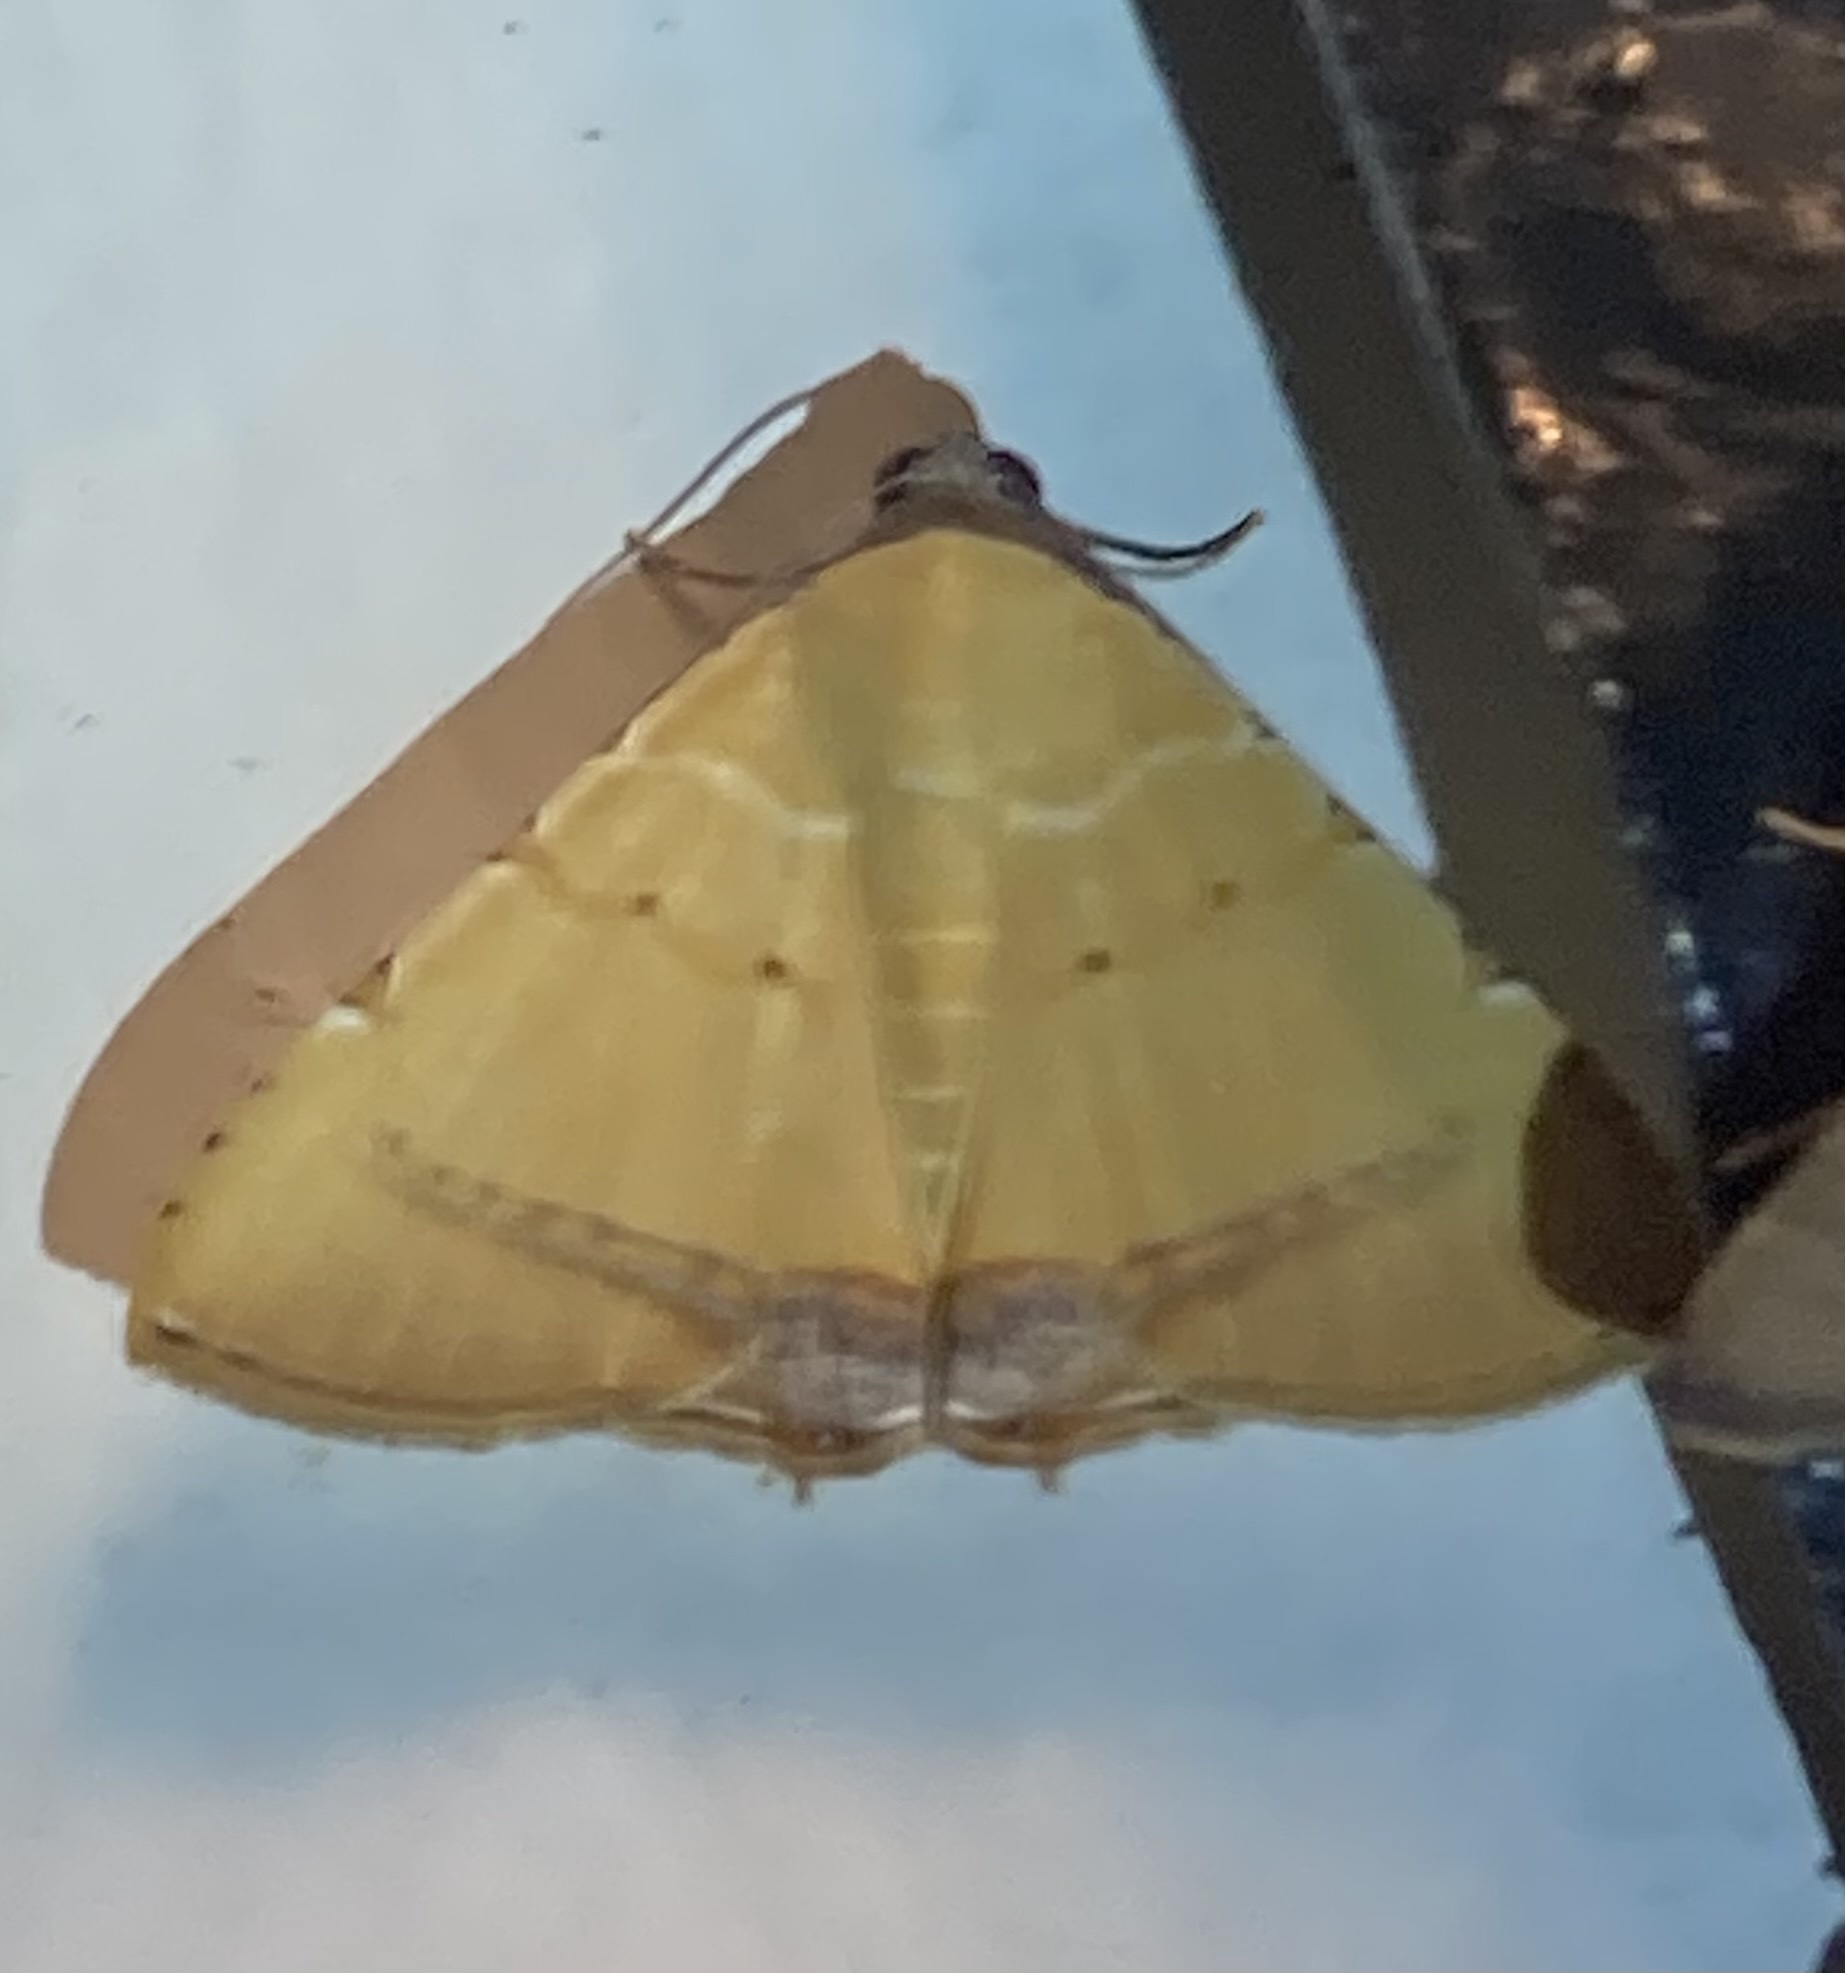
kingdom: Animalia
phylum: Arthropoda
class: Insecta
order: Lepidoptera
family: Erebidae
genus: Eulepidotis
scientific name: Eulepidotis micca
